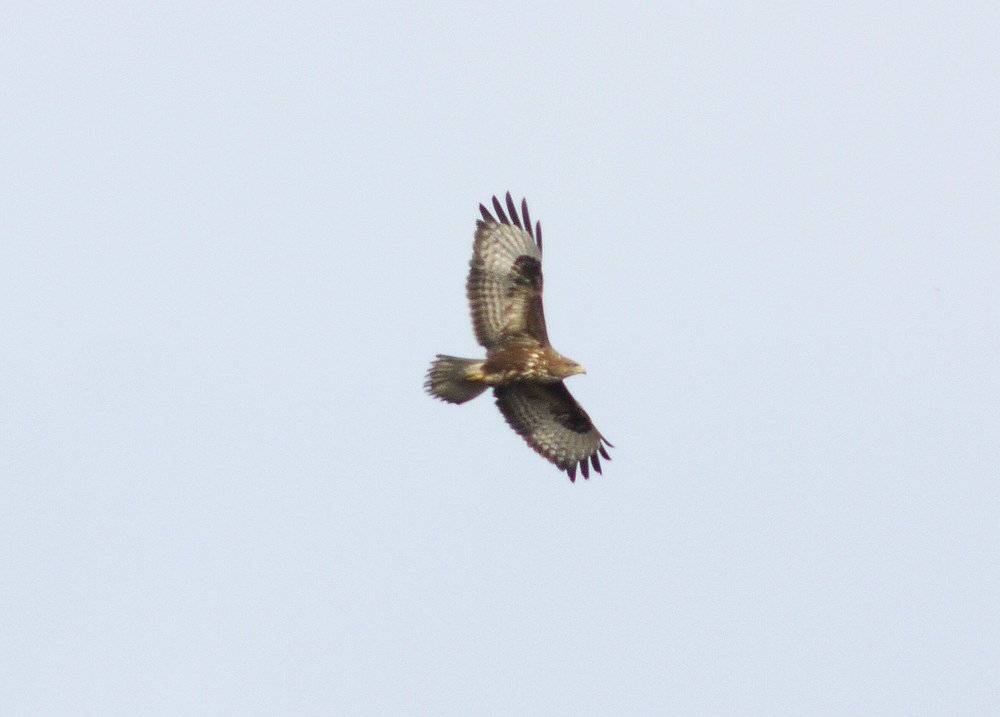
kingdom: Animalia
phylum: Chordata
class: Aves
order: Accipitriformes
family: Accipitridae
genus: Buteo
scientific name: Buteo buteo
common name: Common buzzard
